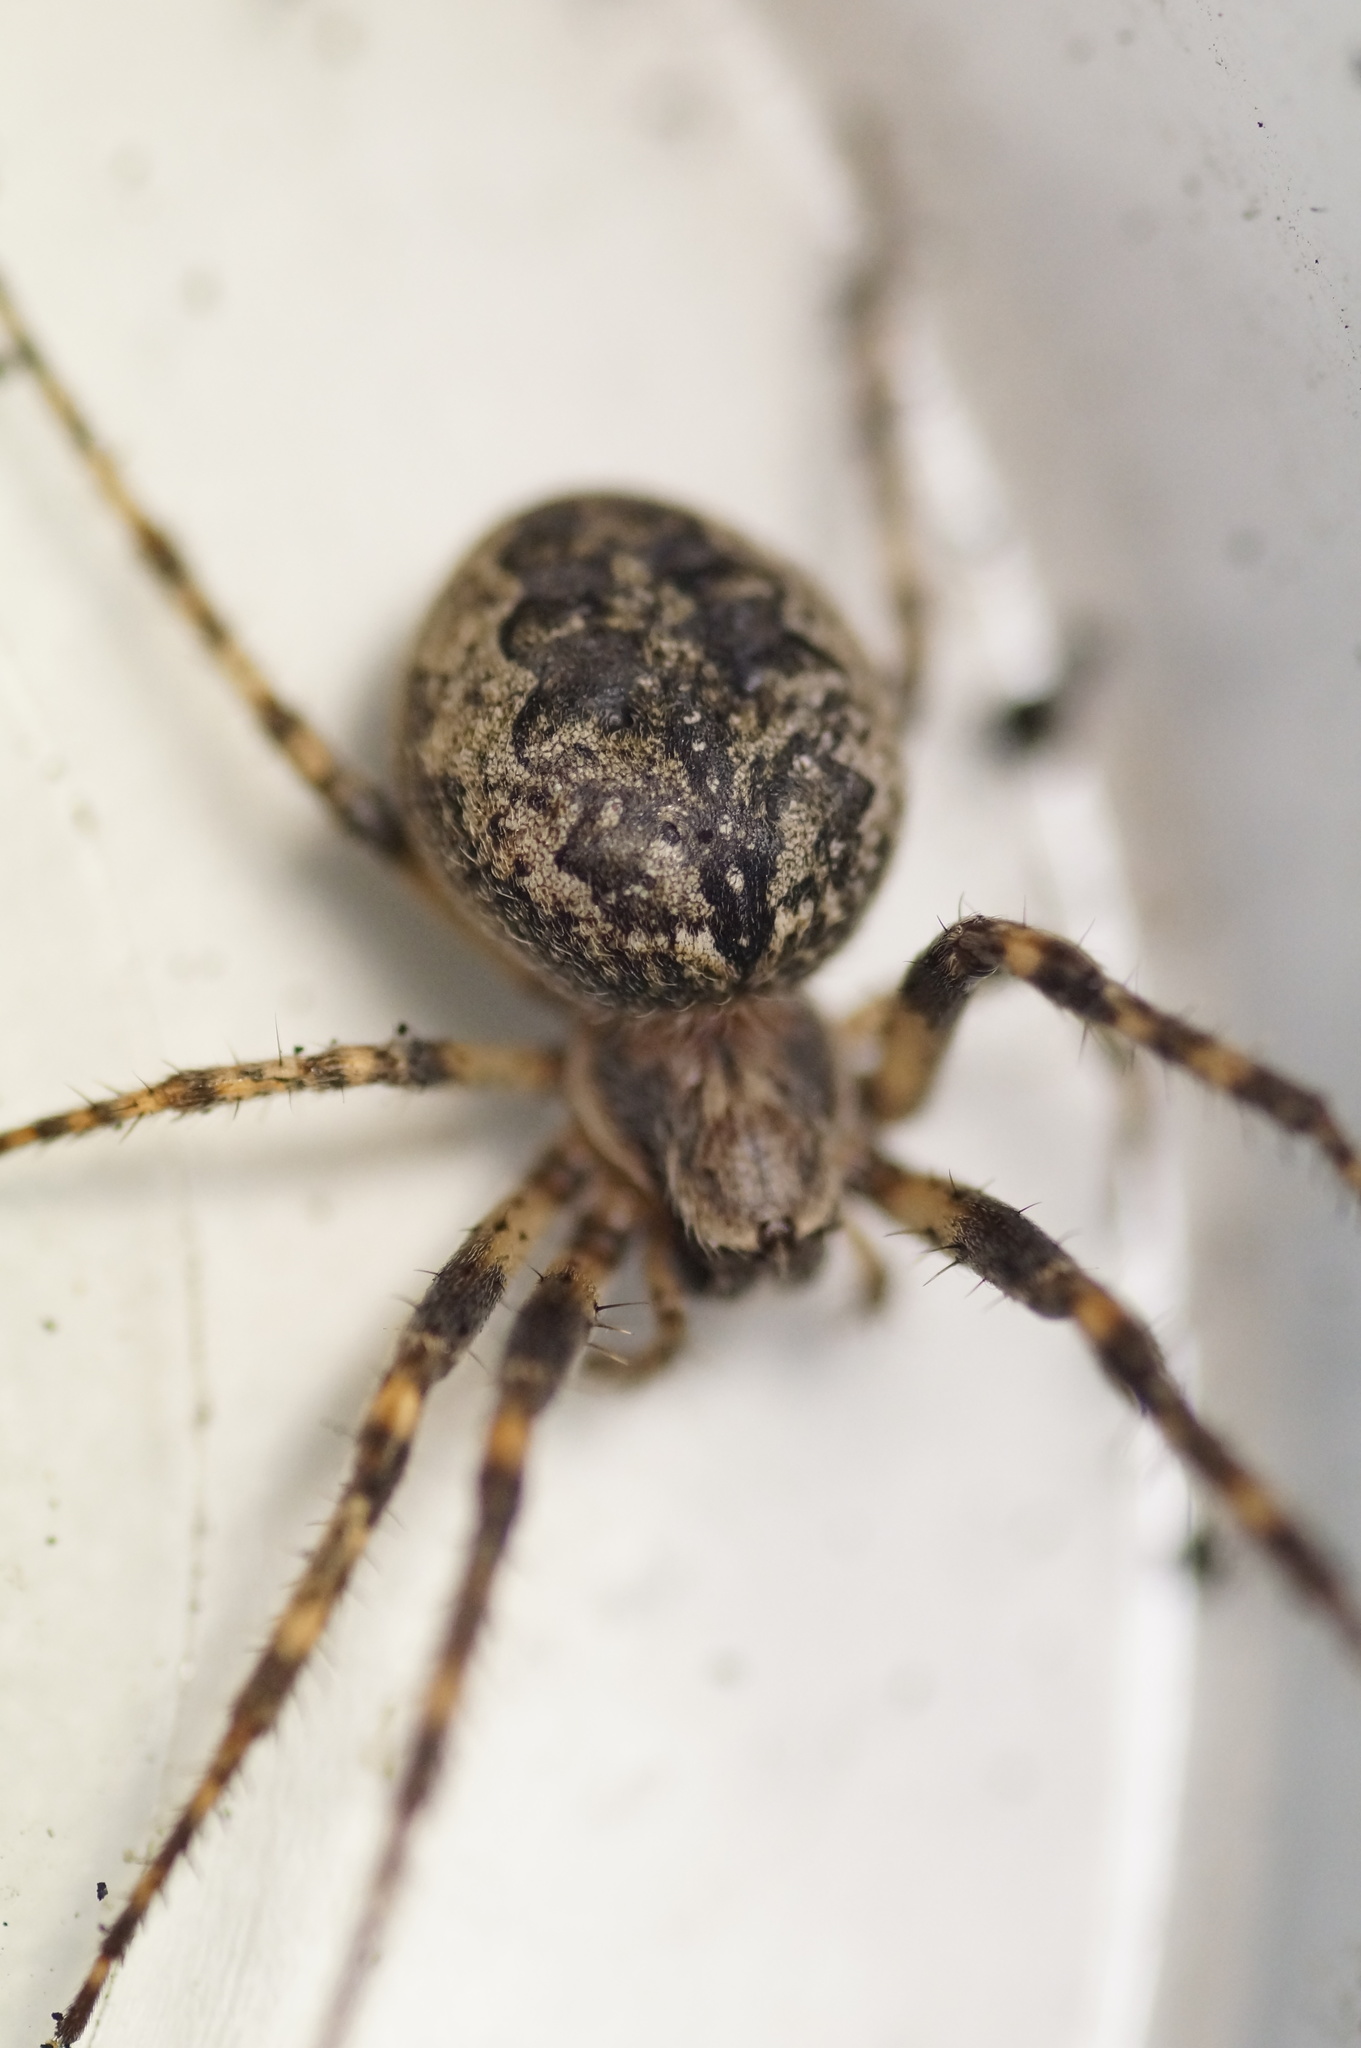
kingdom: Animalia
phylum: Arthropoda
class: Arachnida
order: Araneae
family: Araneidae
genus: Larinioides
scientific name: Larinioides ixobolus
